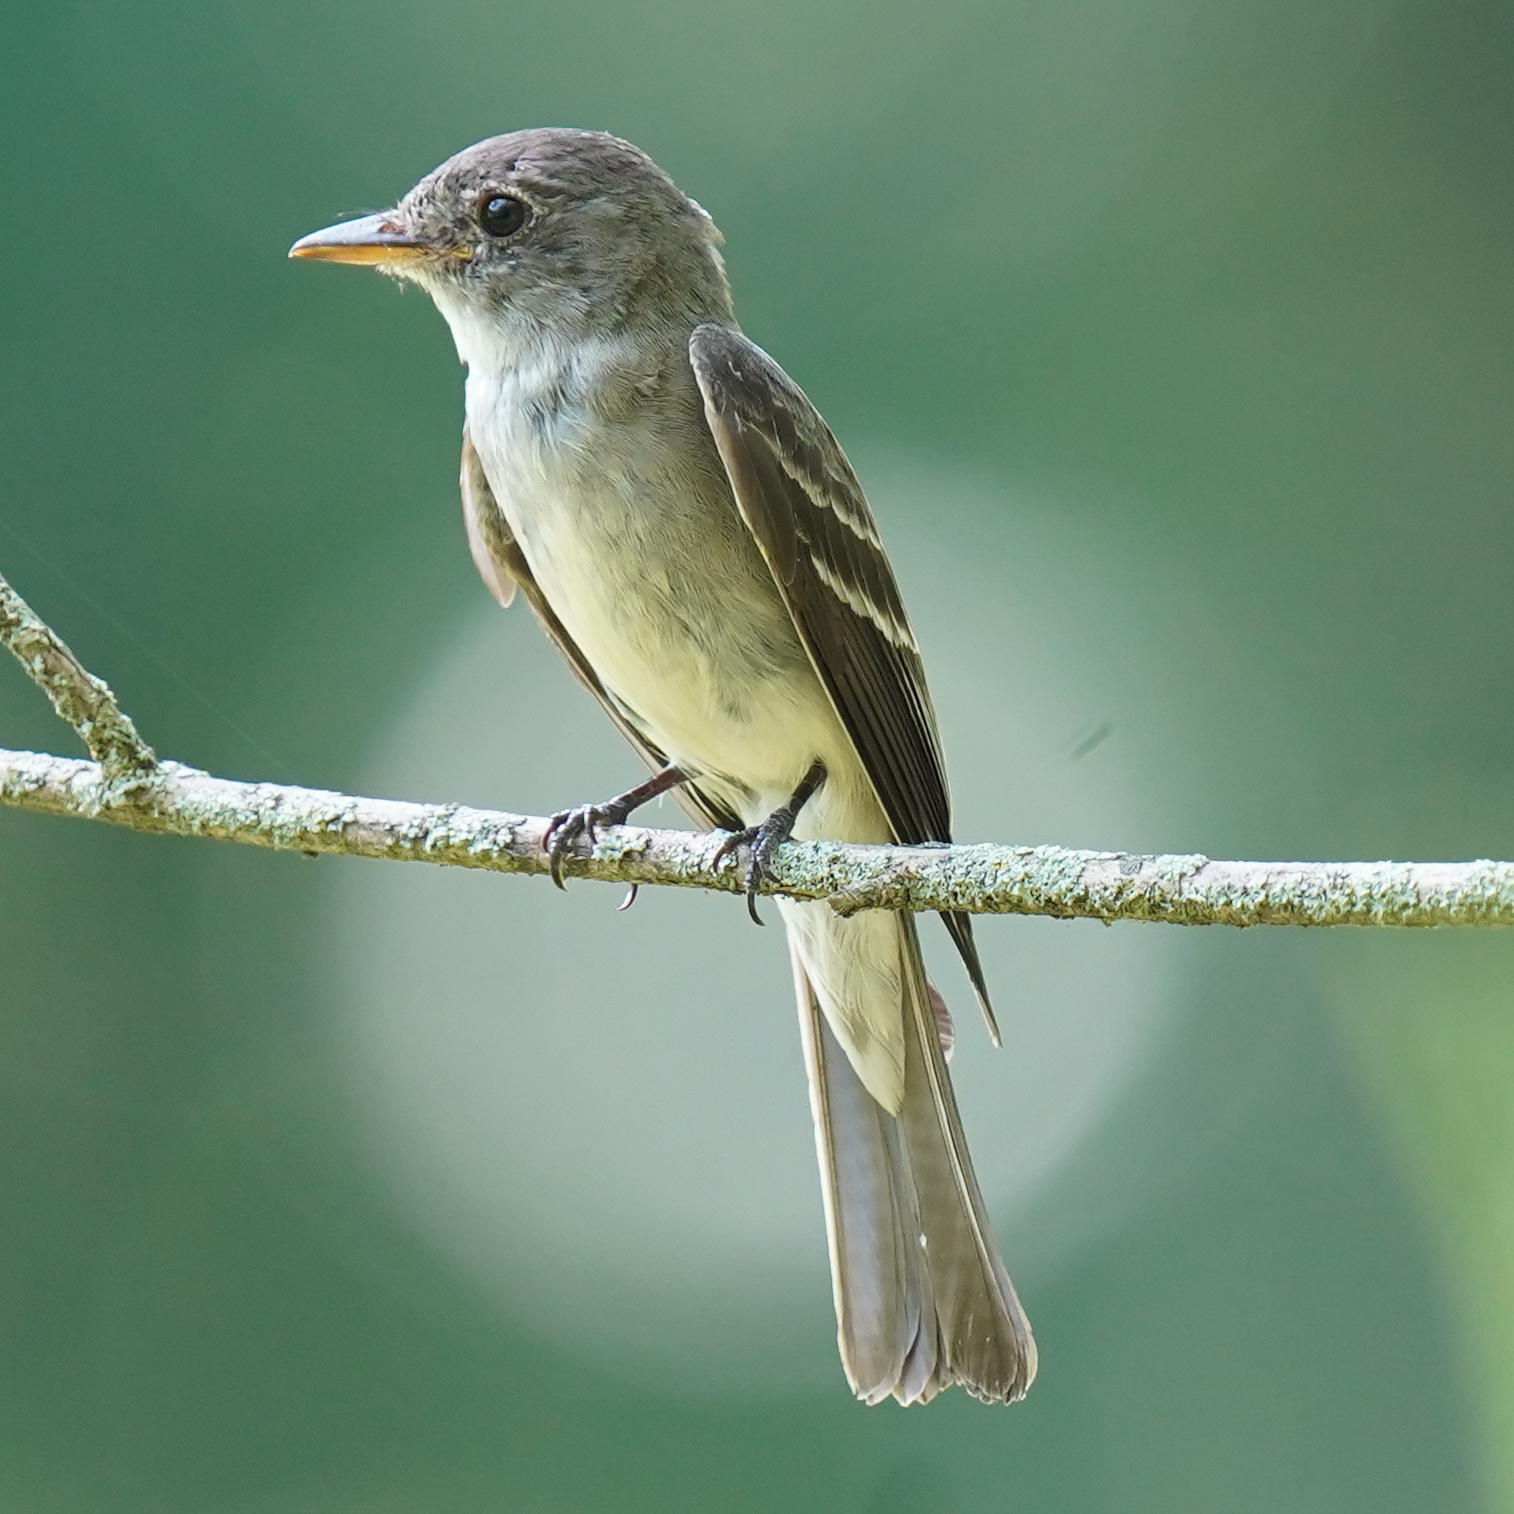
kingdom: Animalia
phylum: Chordata
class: Aves
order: Passeriformes
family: Tyrannidae
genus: Contopus
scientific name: Contopus virens
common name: Eastern wood-pewee
